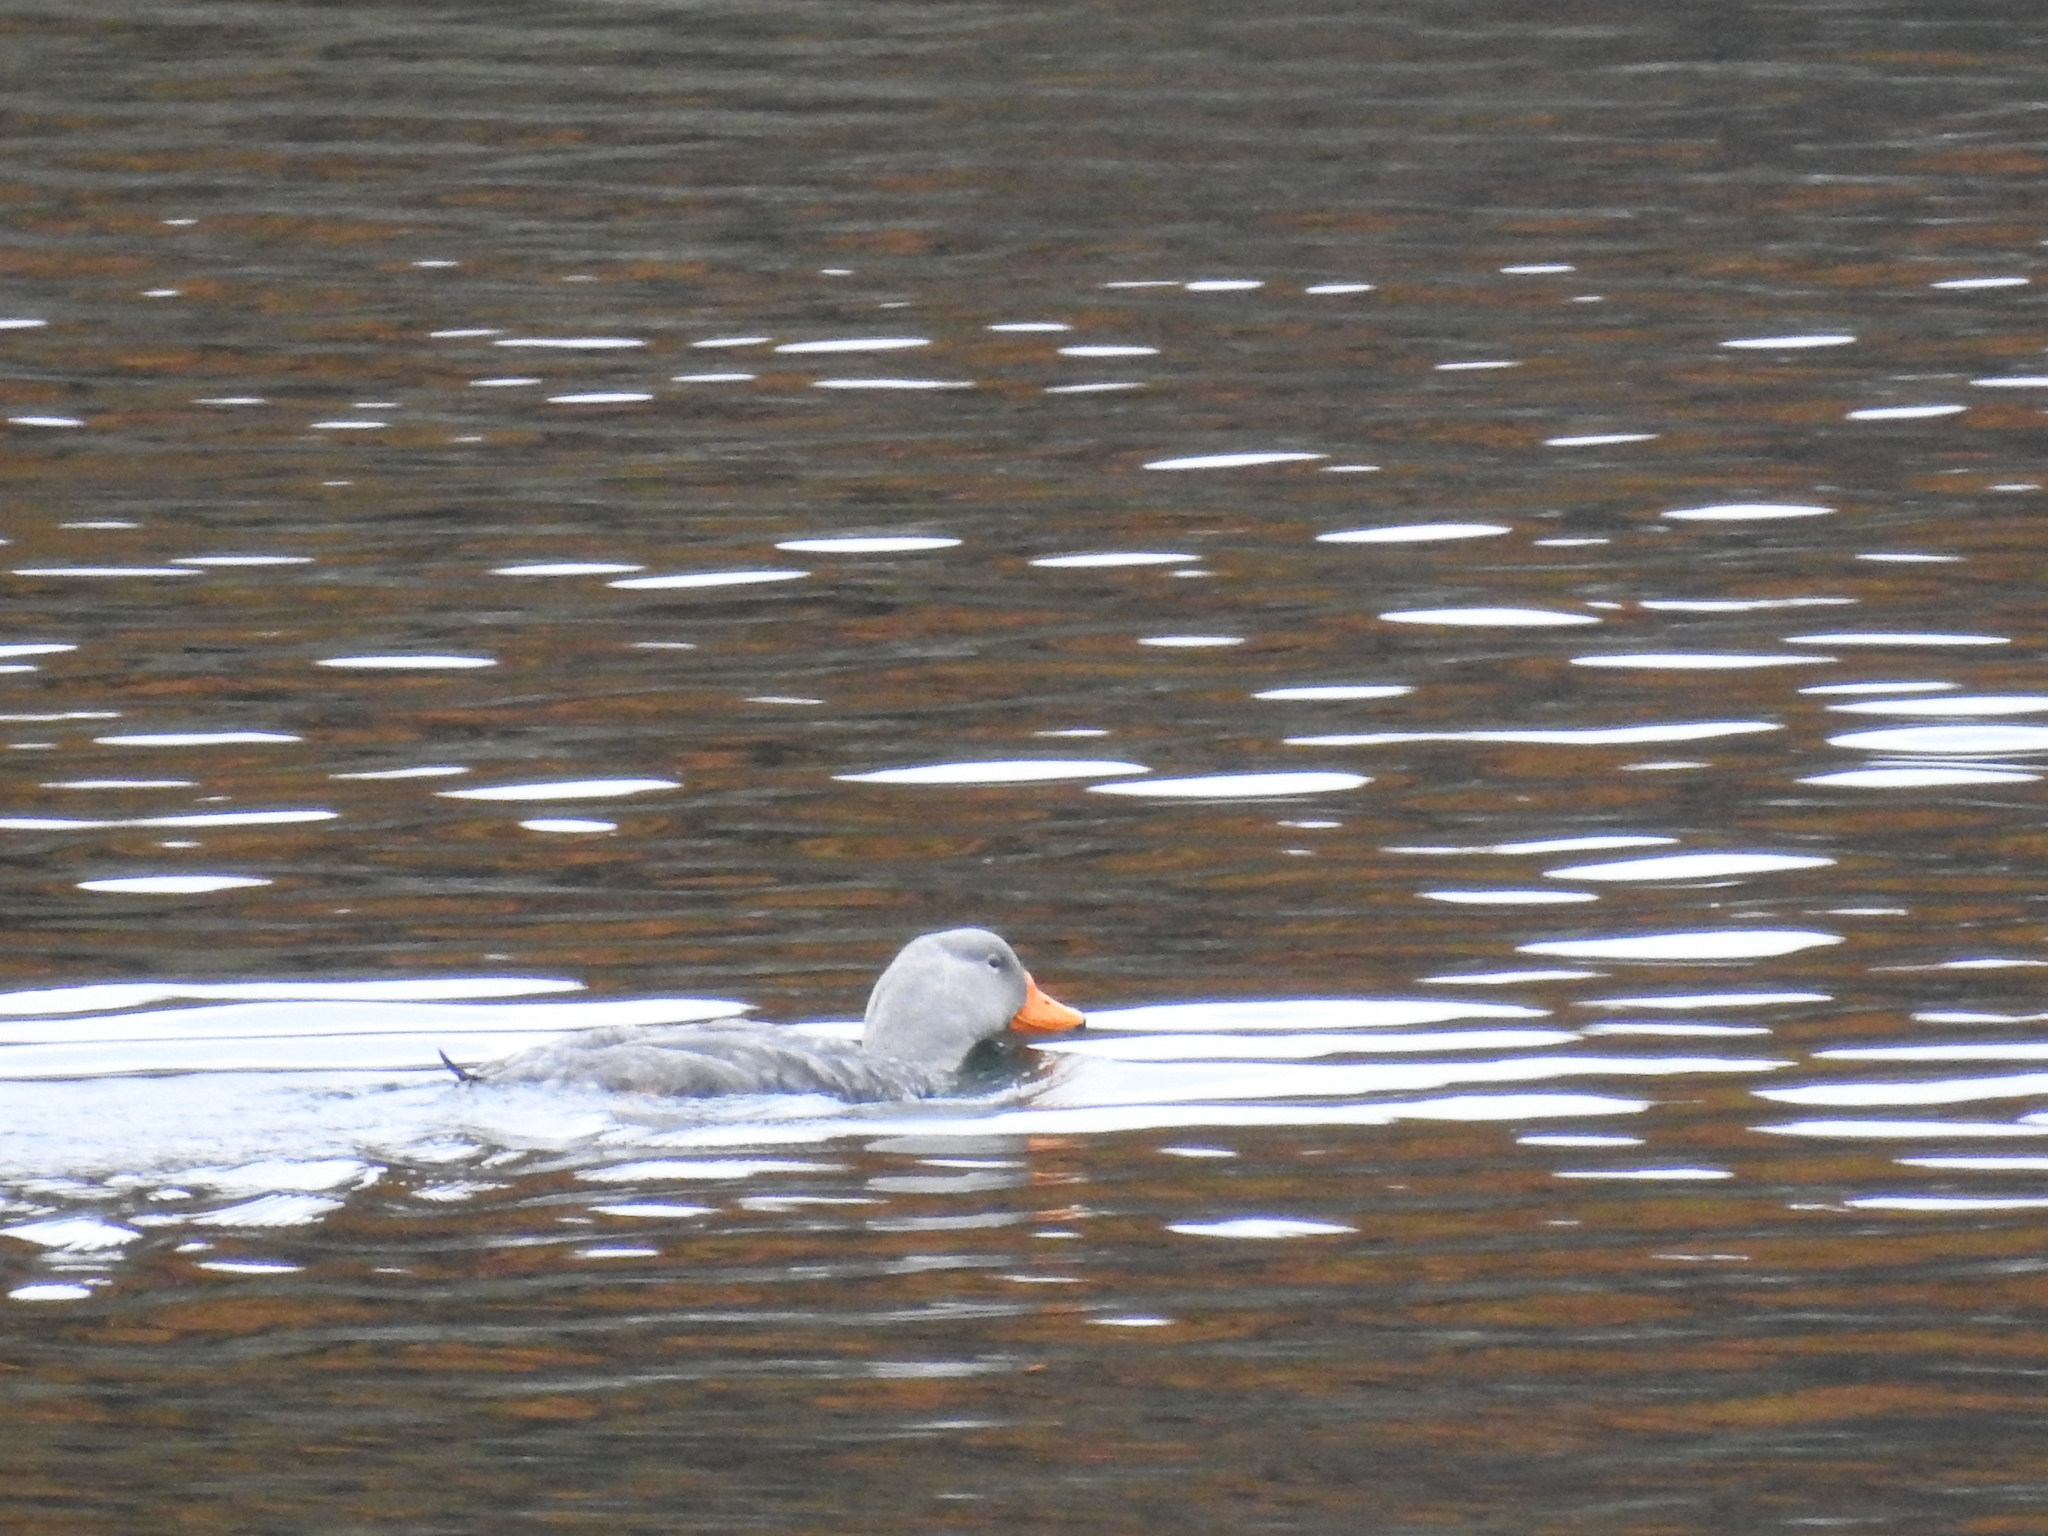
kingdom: Animalia
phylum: Chordata
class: Aves
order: Anseriformes
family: Anatidae
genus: Tachyeres
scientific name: Tachyeres pteneres
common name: Fuegian steamer duck
